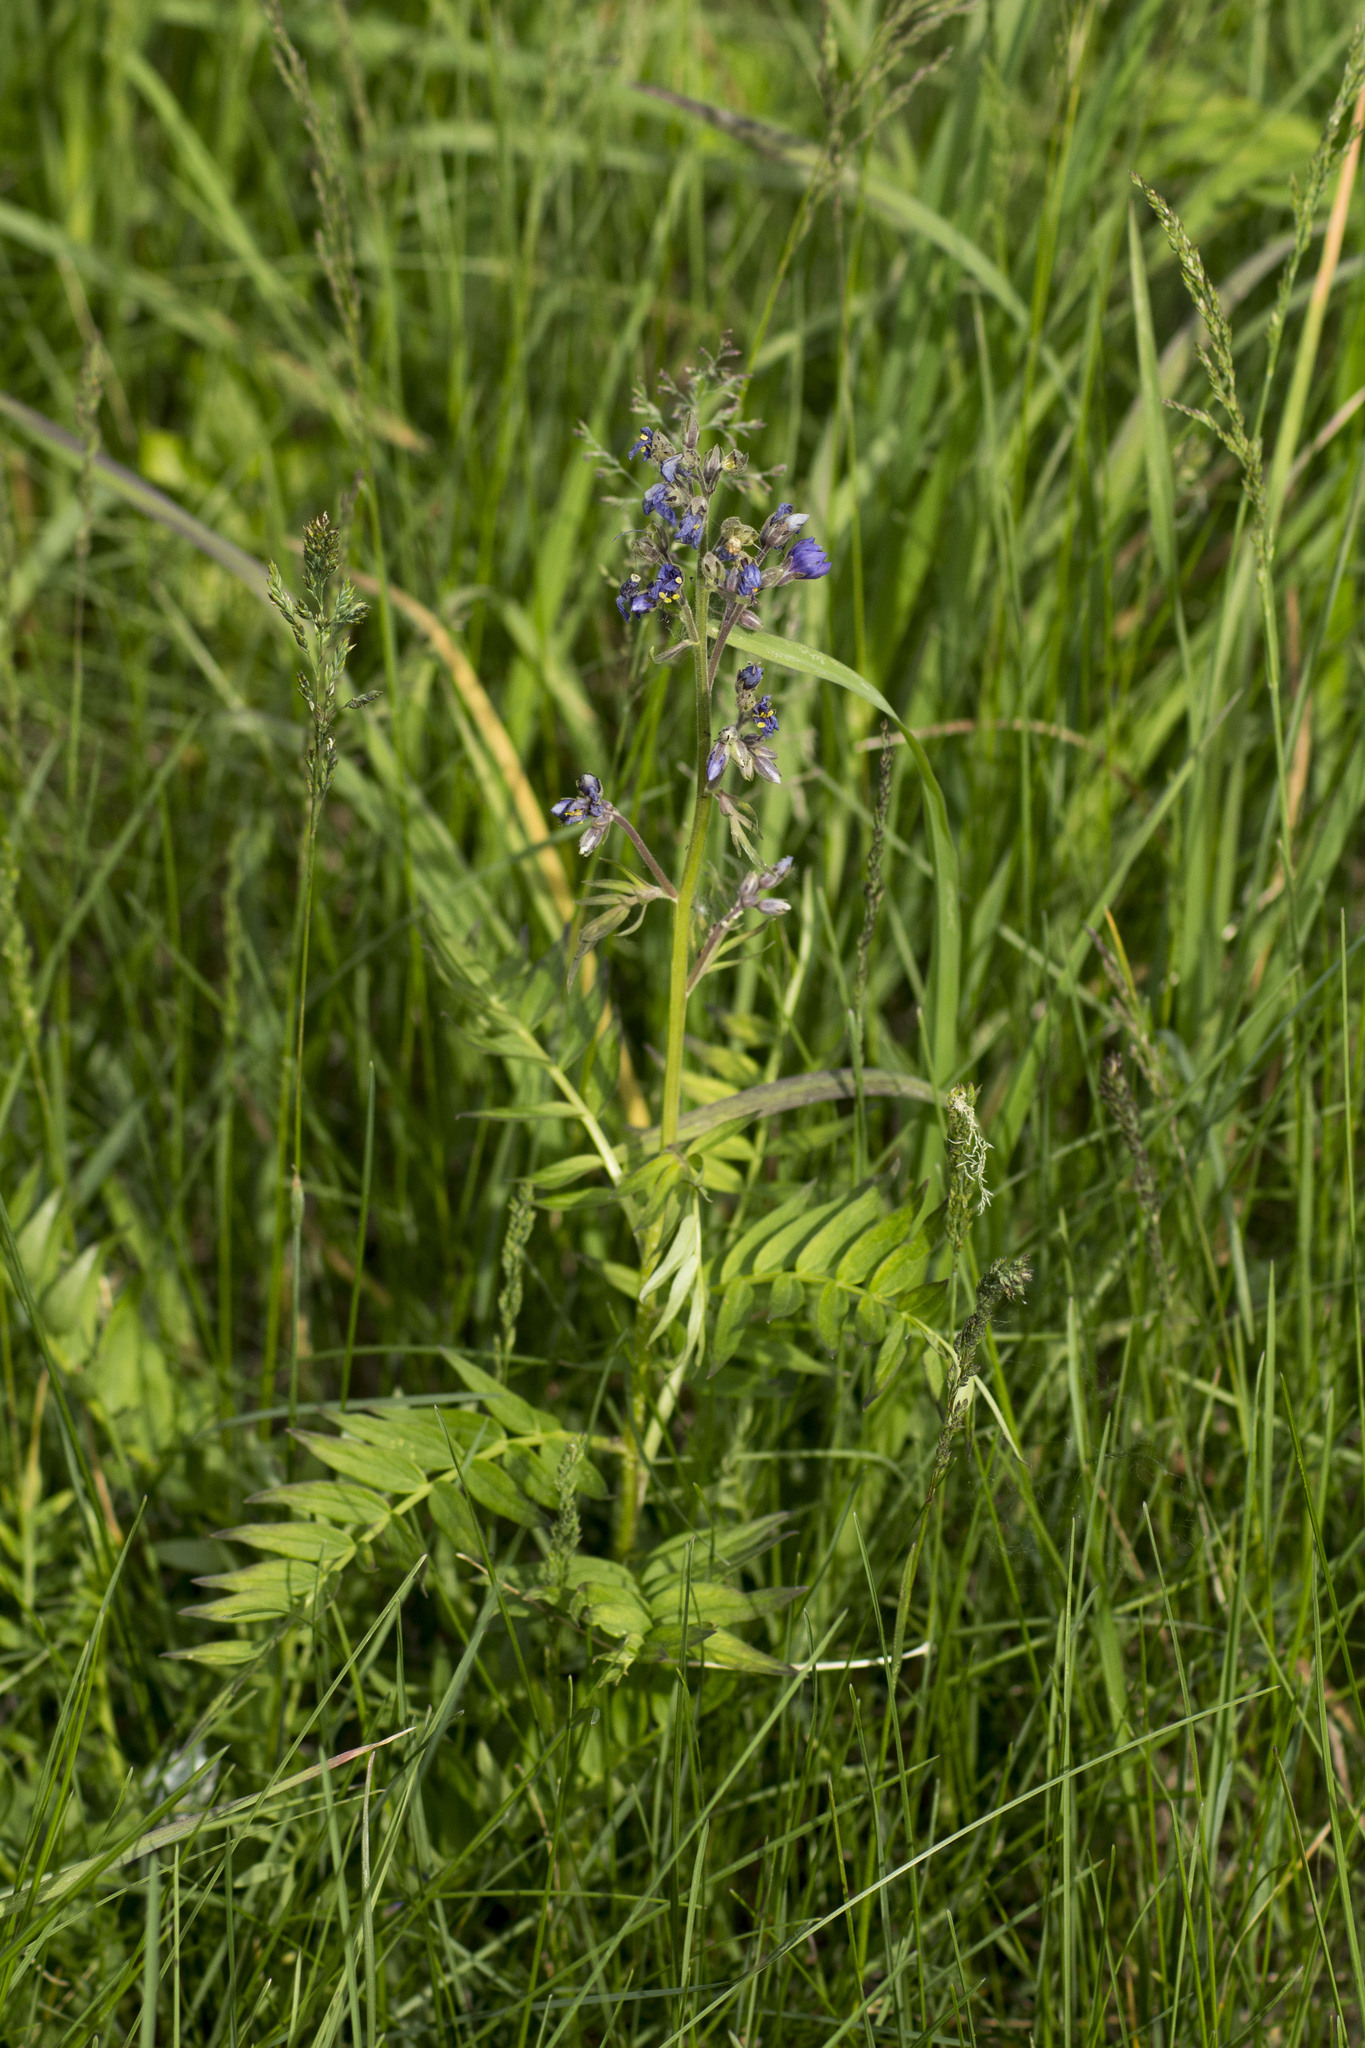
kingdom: Plantae
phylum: Tracheophyta
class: Magnoliopsida
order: Ericales
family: Polemoniaceae
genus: Polemonium
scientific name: Polemonium caeruleum
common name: Jacob's-ladder
